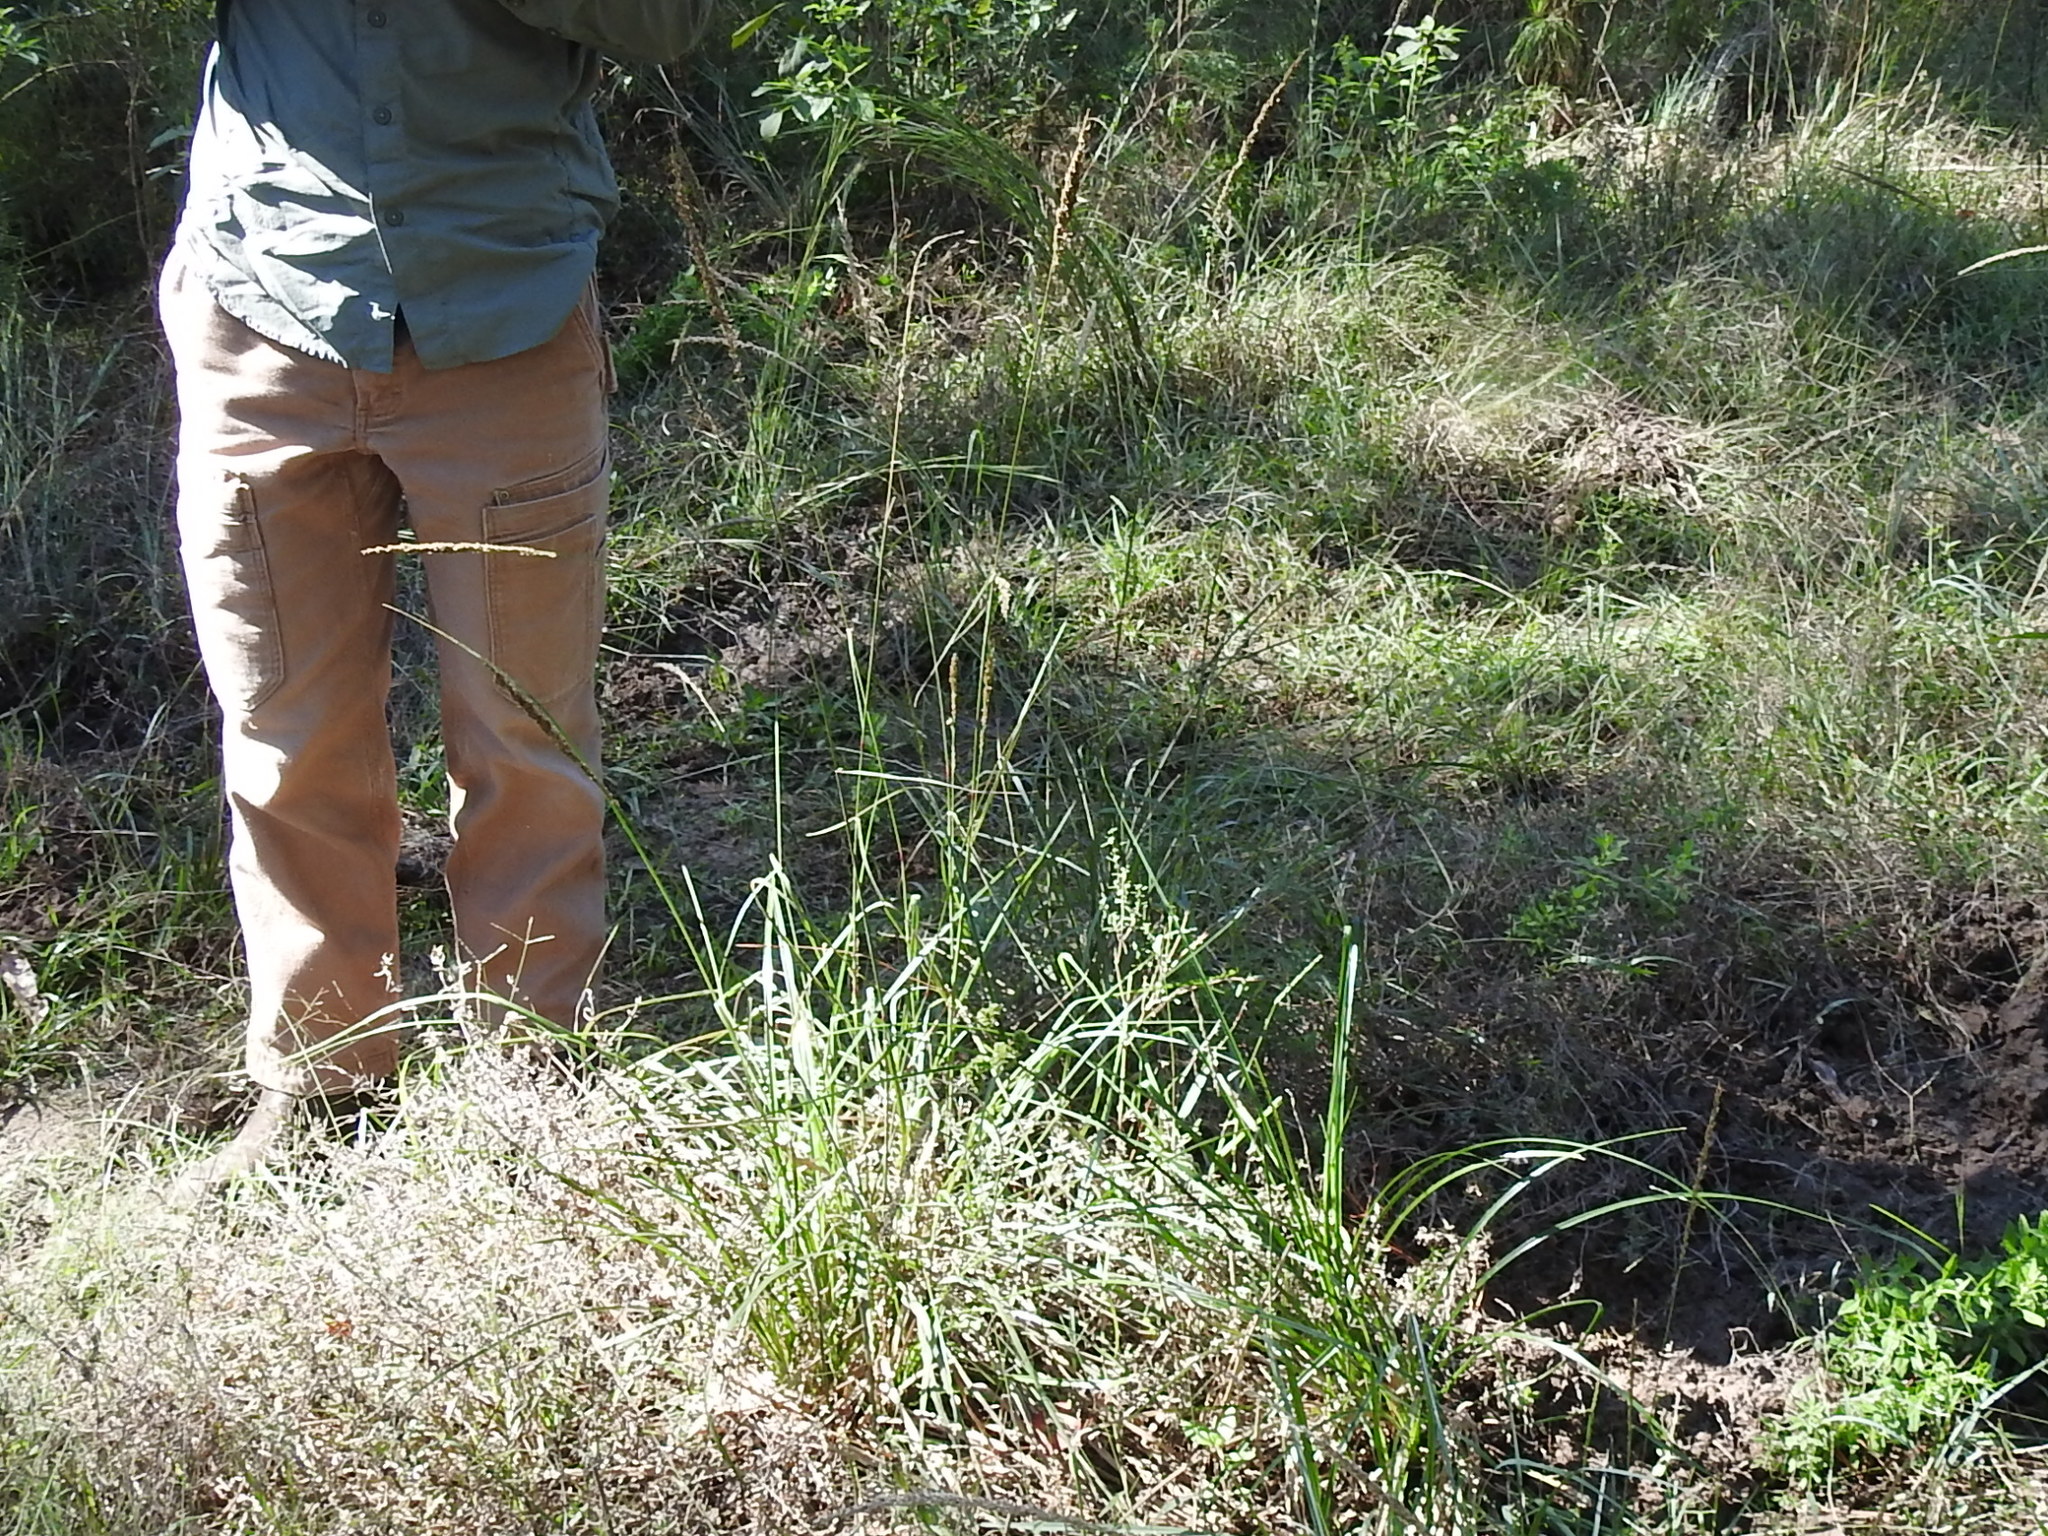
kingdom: Plantae
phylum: Tracheophyta
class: Liliopsida
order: Poales
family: Poaceae
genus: Tridens
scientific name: Tridens strictus
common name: Long-spike tridens
